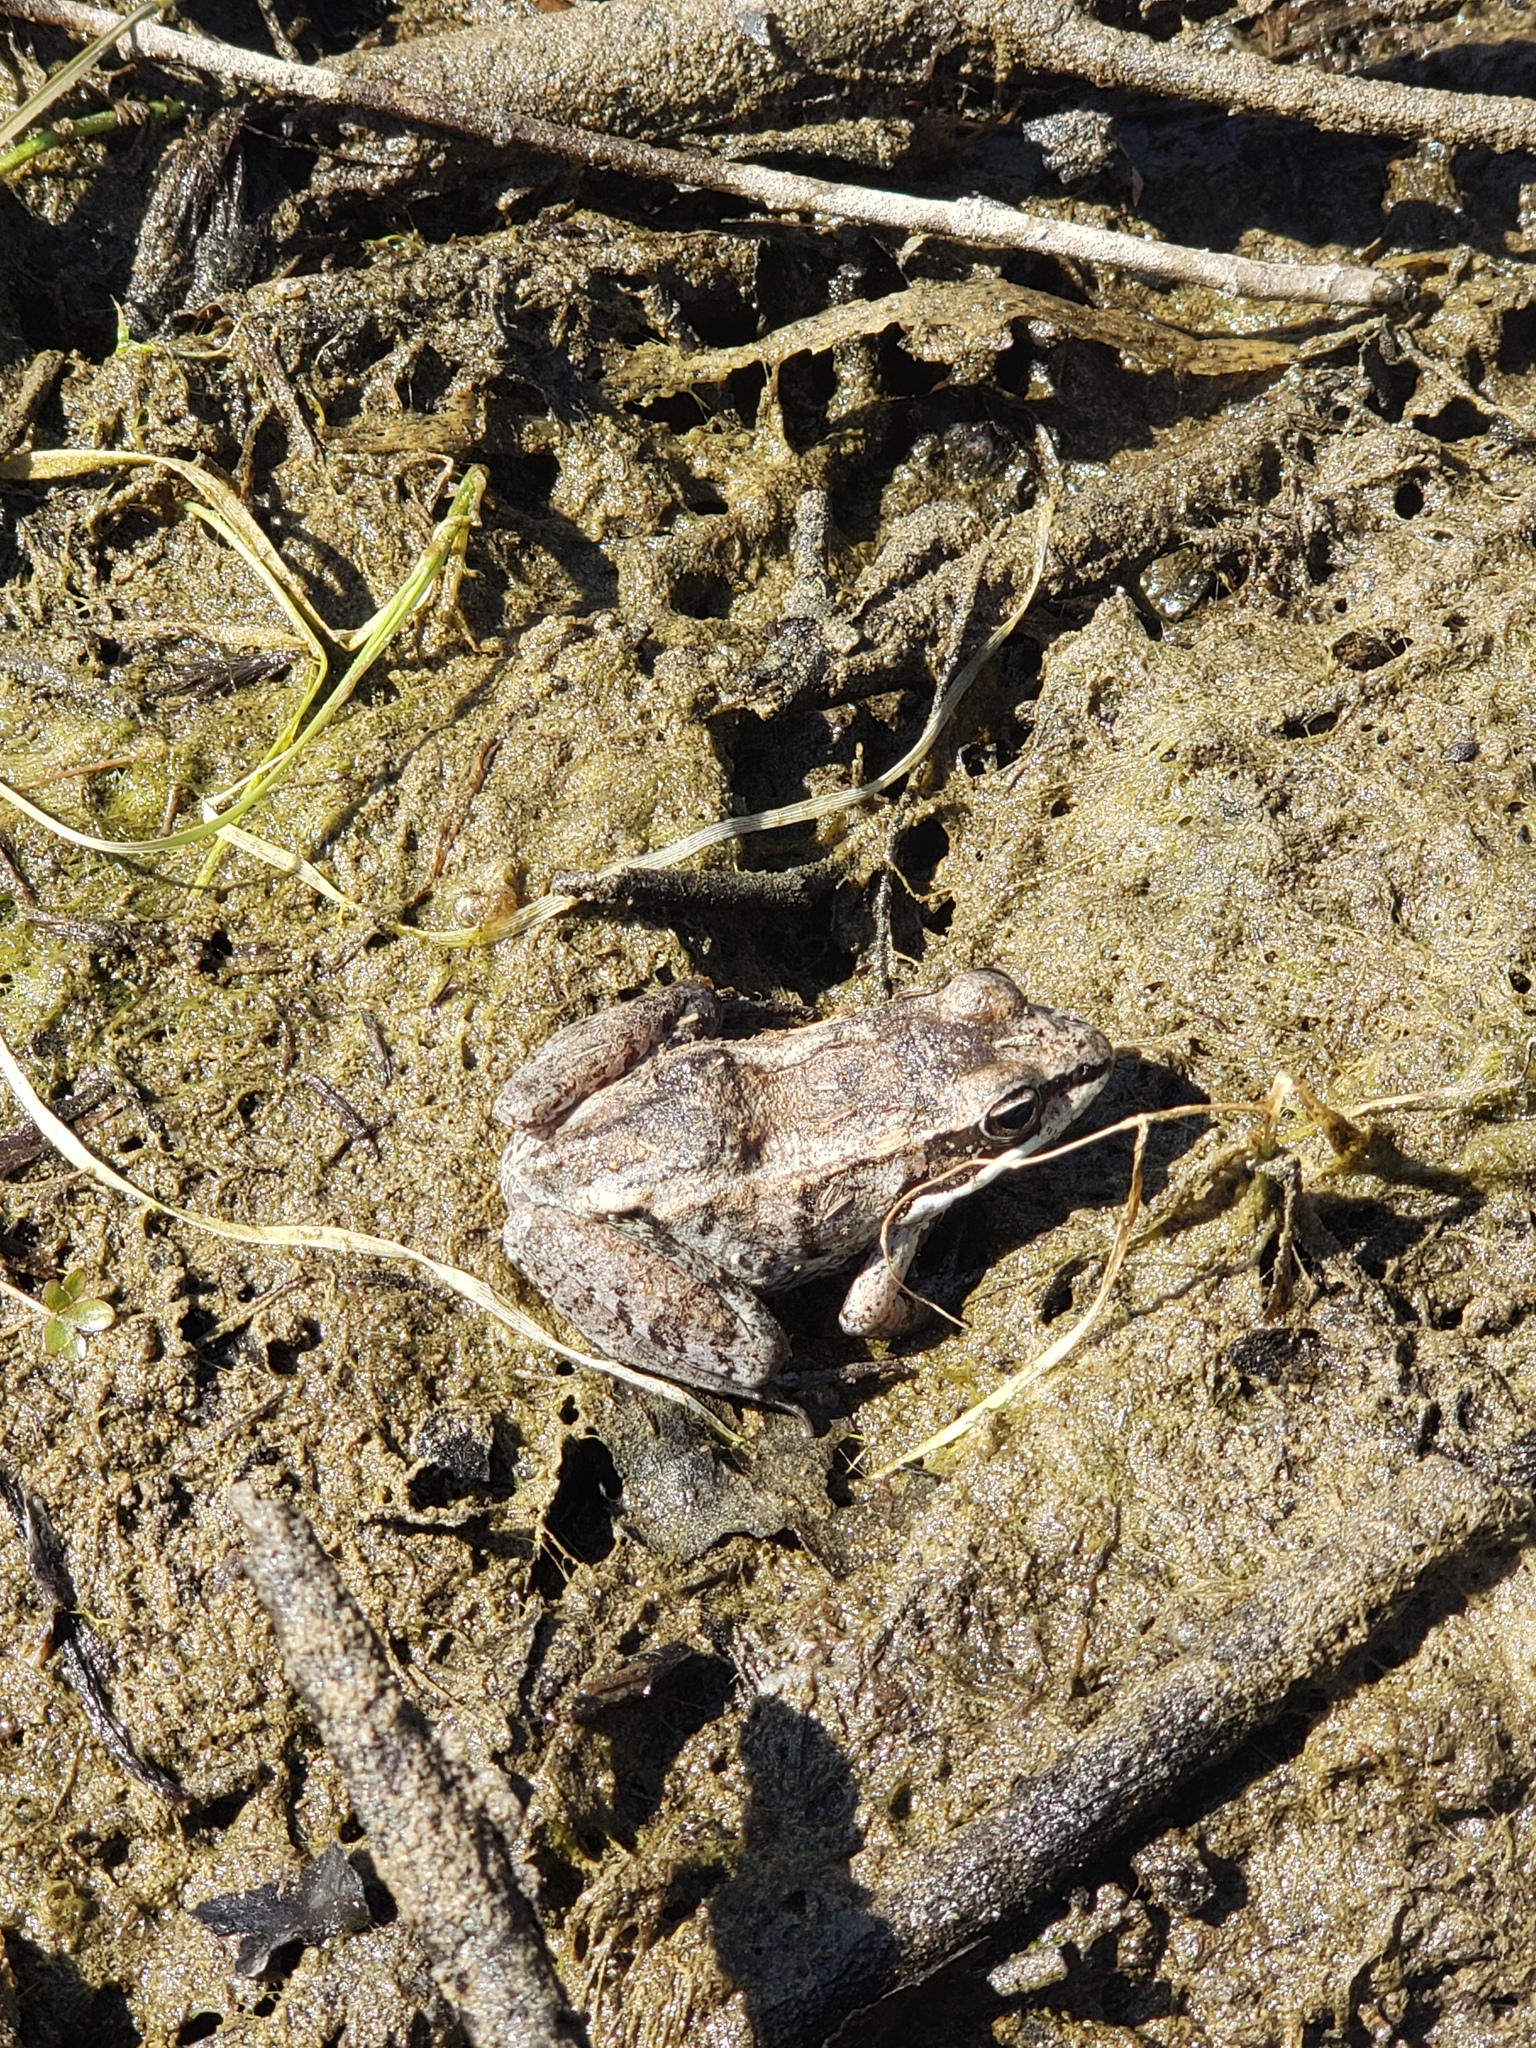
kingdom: Animalia
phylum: Chordata
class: Amphibia
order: Anura
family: Ranidae
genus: Lithobates
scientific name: Lithobates sylvaticus
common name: Wood frog
